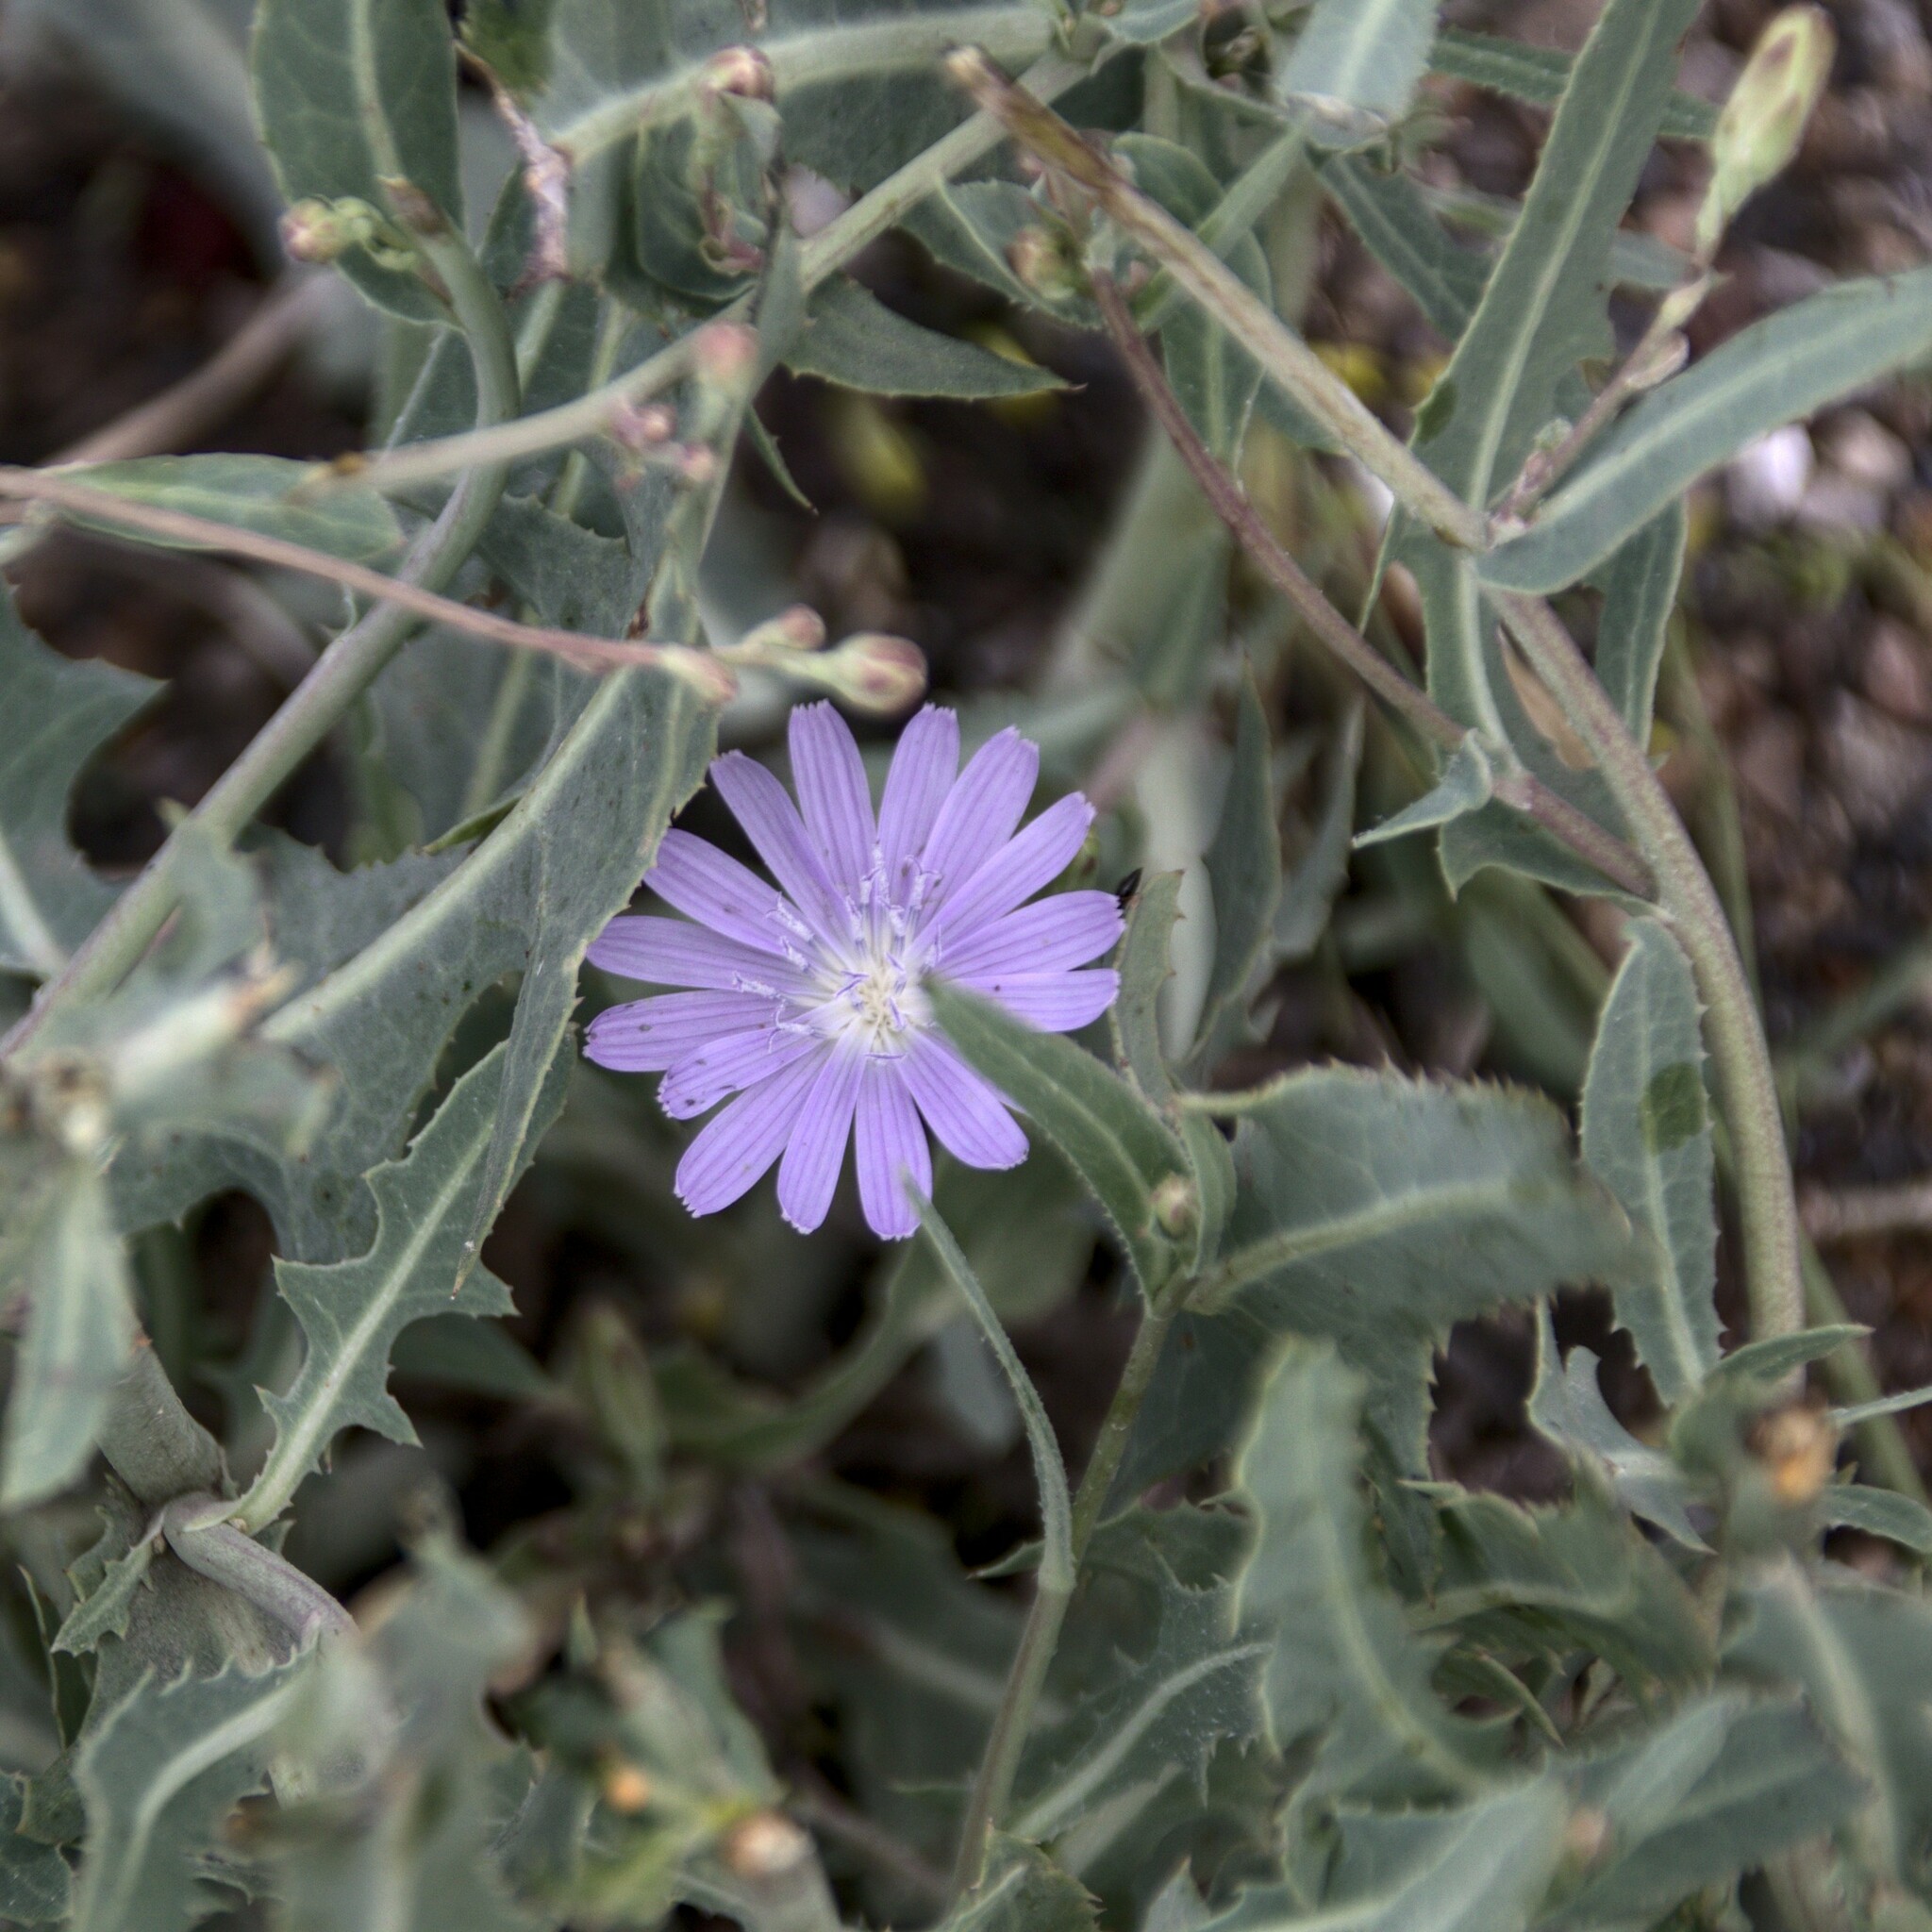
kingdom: Plantae
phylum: Tracheophyta
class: Magnoliopsida
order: Asterales
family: Asteraceae
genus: Lactuca
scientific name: Lactuca tatarica
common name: Blue lettuce
